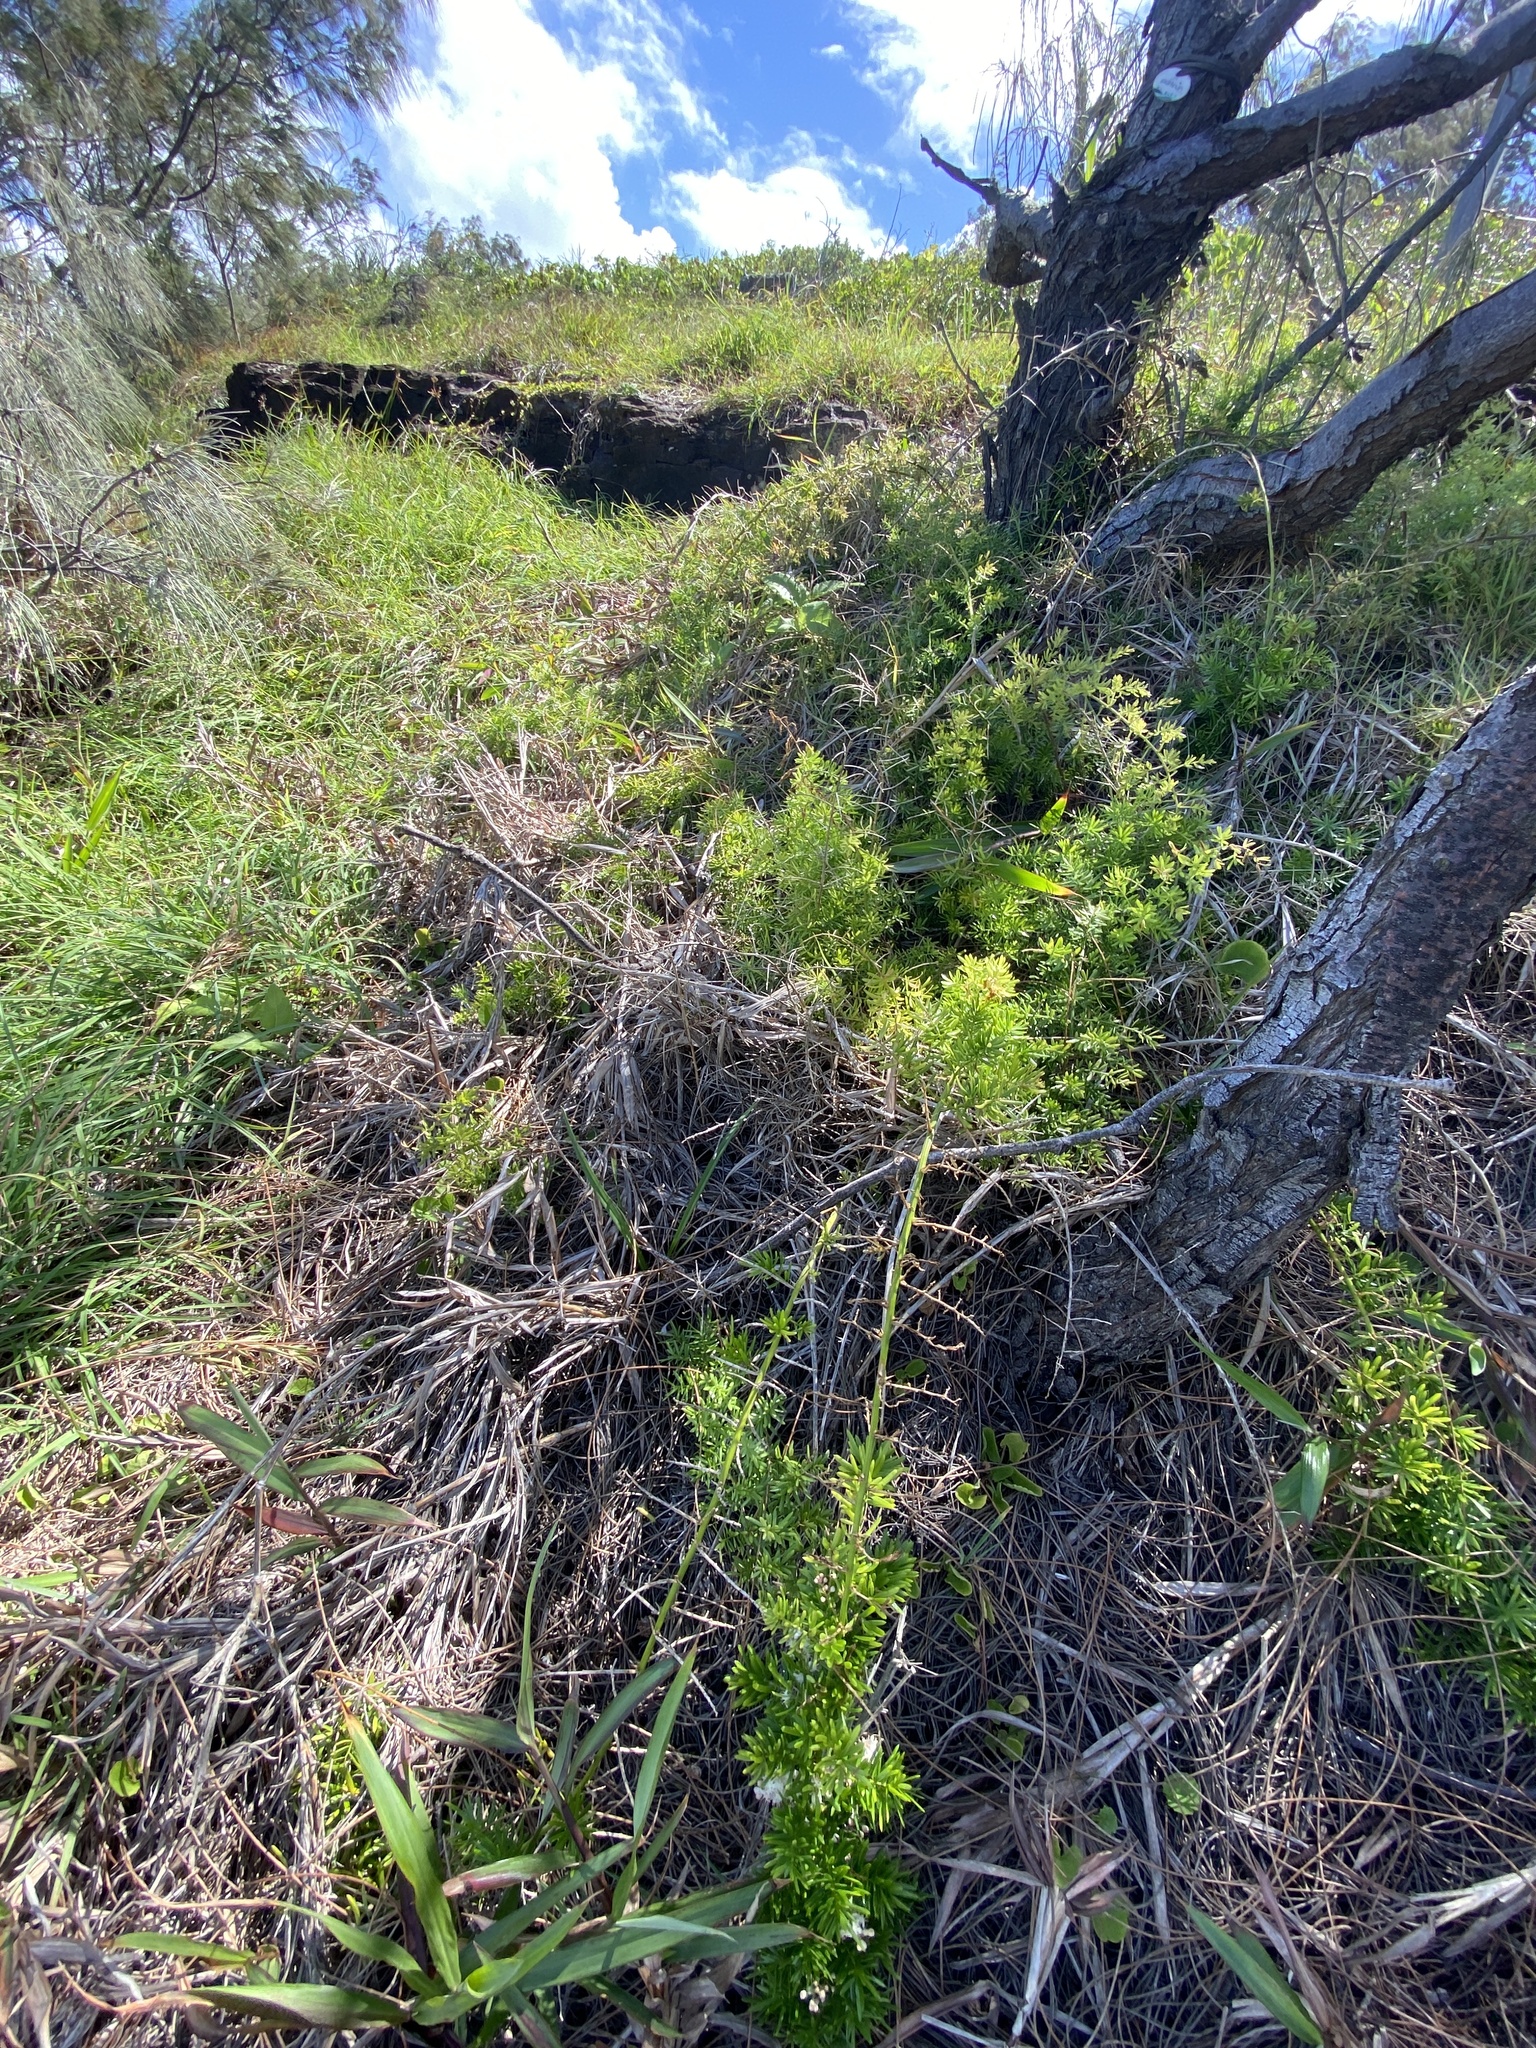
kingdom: Plantae
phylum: Tracheophyta
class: Liliopsida
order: Asparagales
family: Asparagaceae
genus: Asparagus
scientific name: Asparagus aethiopicus
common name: Sprenger's asparagus fern
